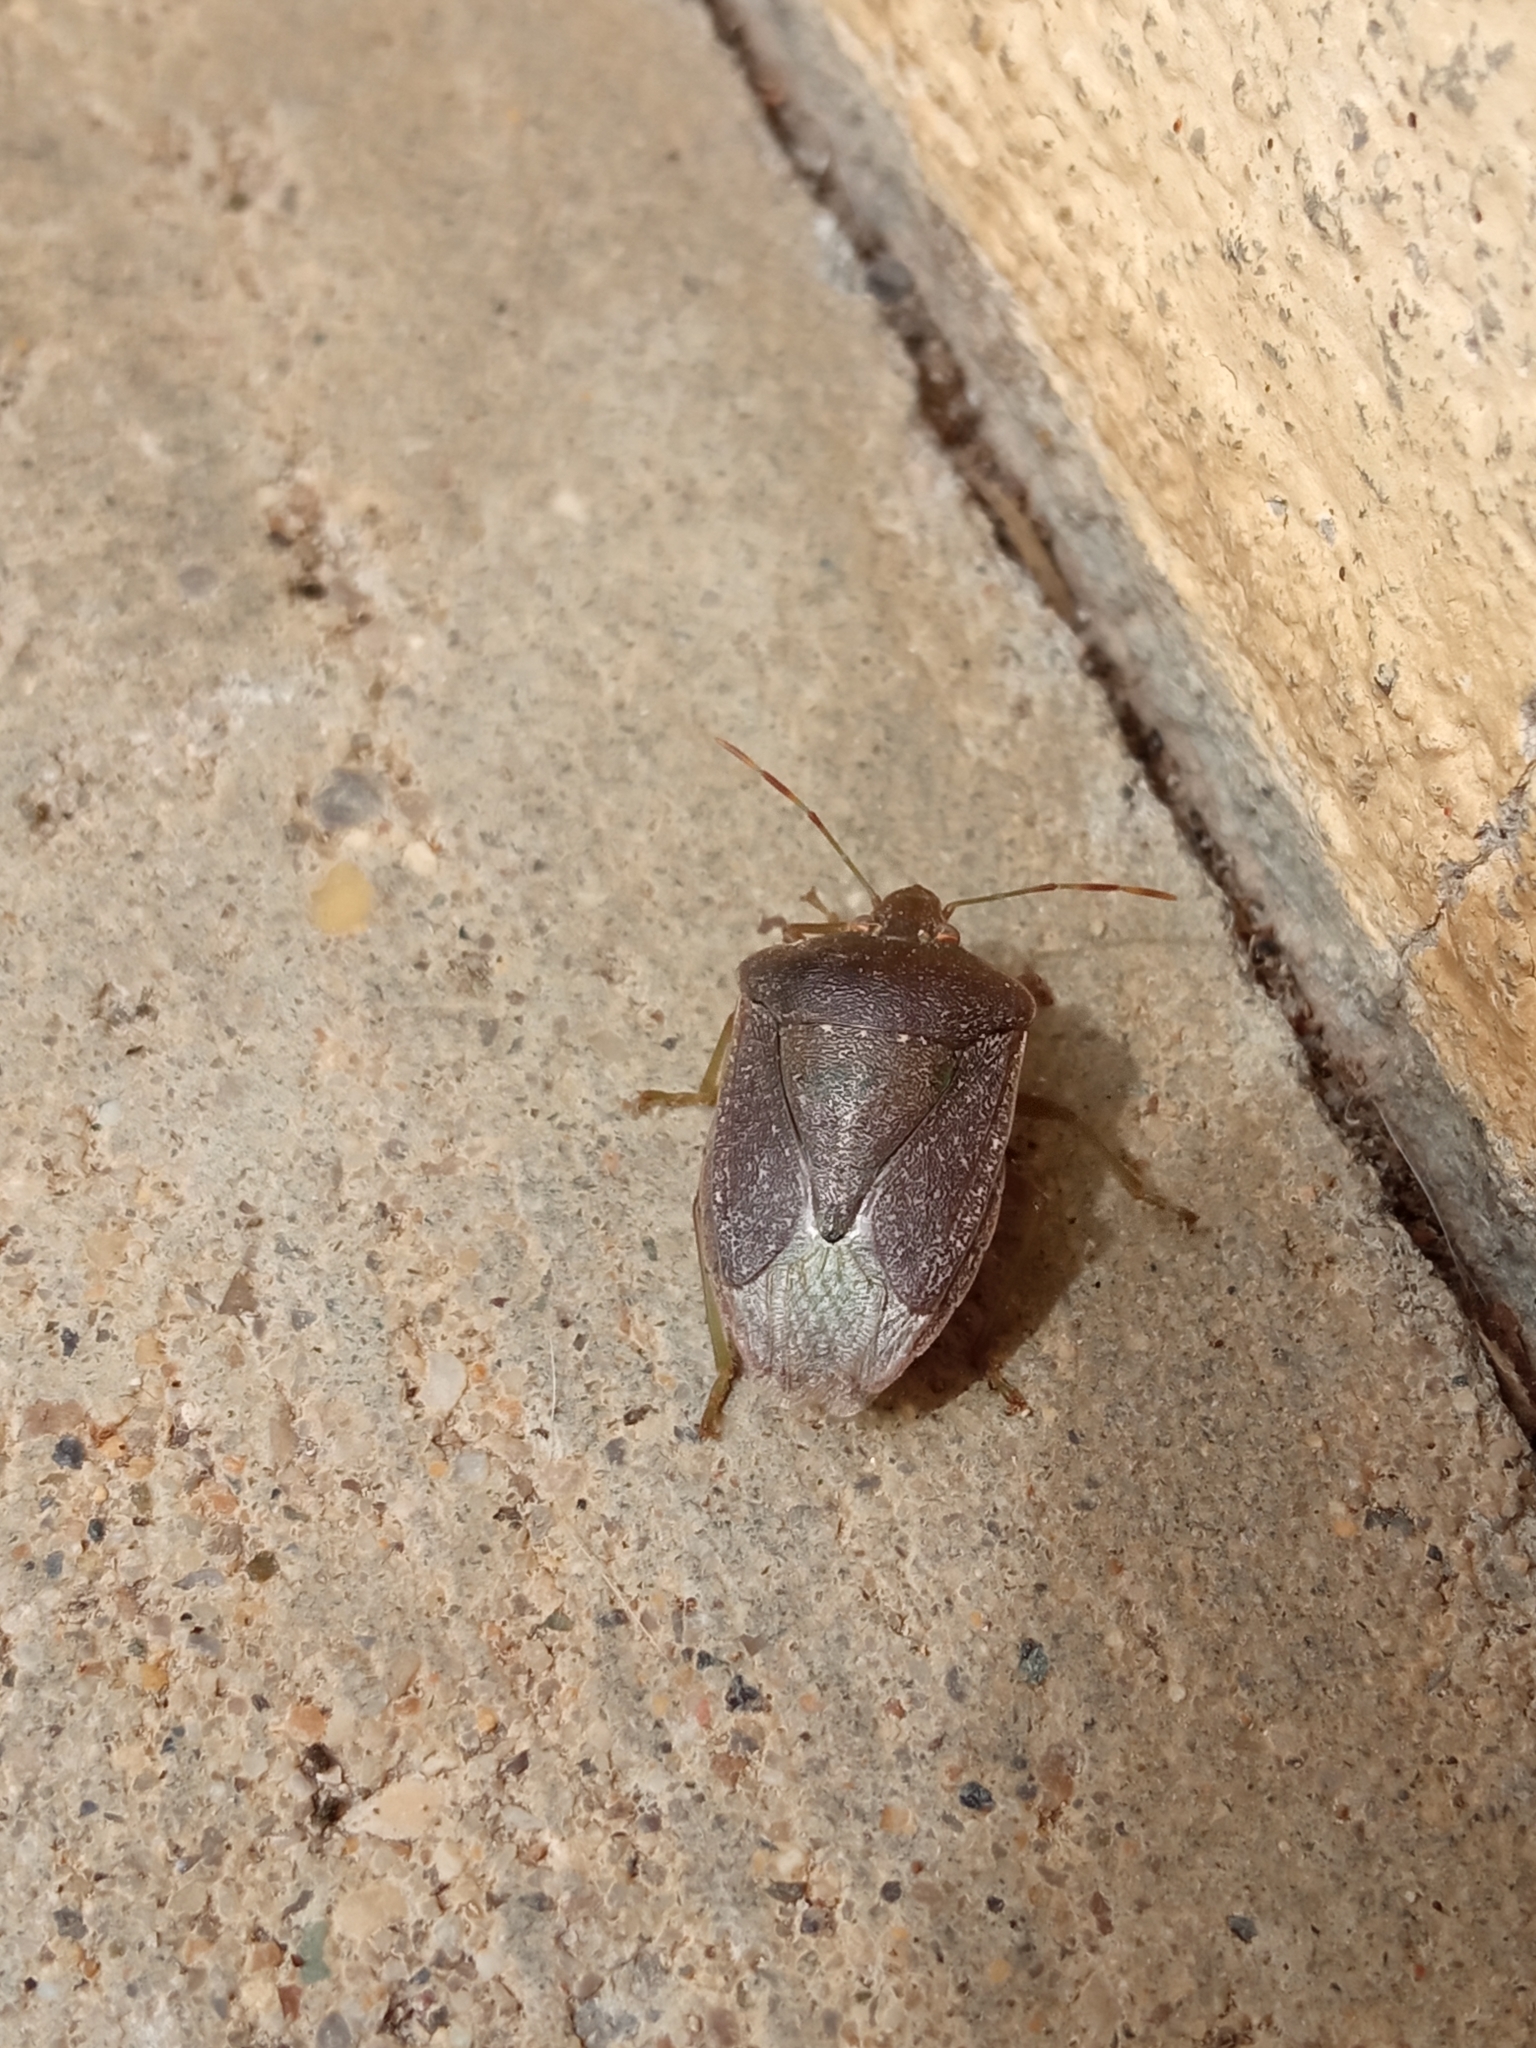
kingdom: Animalia
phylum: Arthropoda
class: Insecta
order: Hemiptera
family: Pentatomidae
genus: Nezara
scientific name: Nezara viridula
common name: Southern green stink bug
